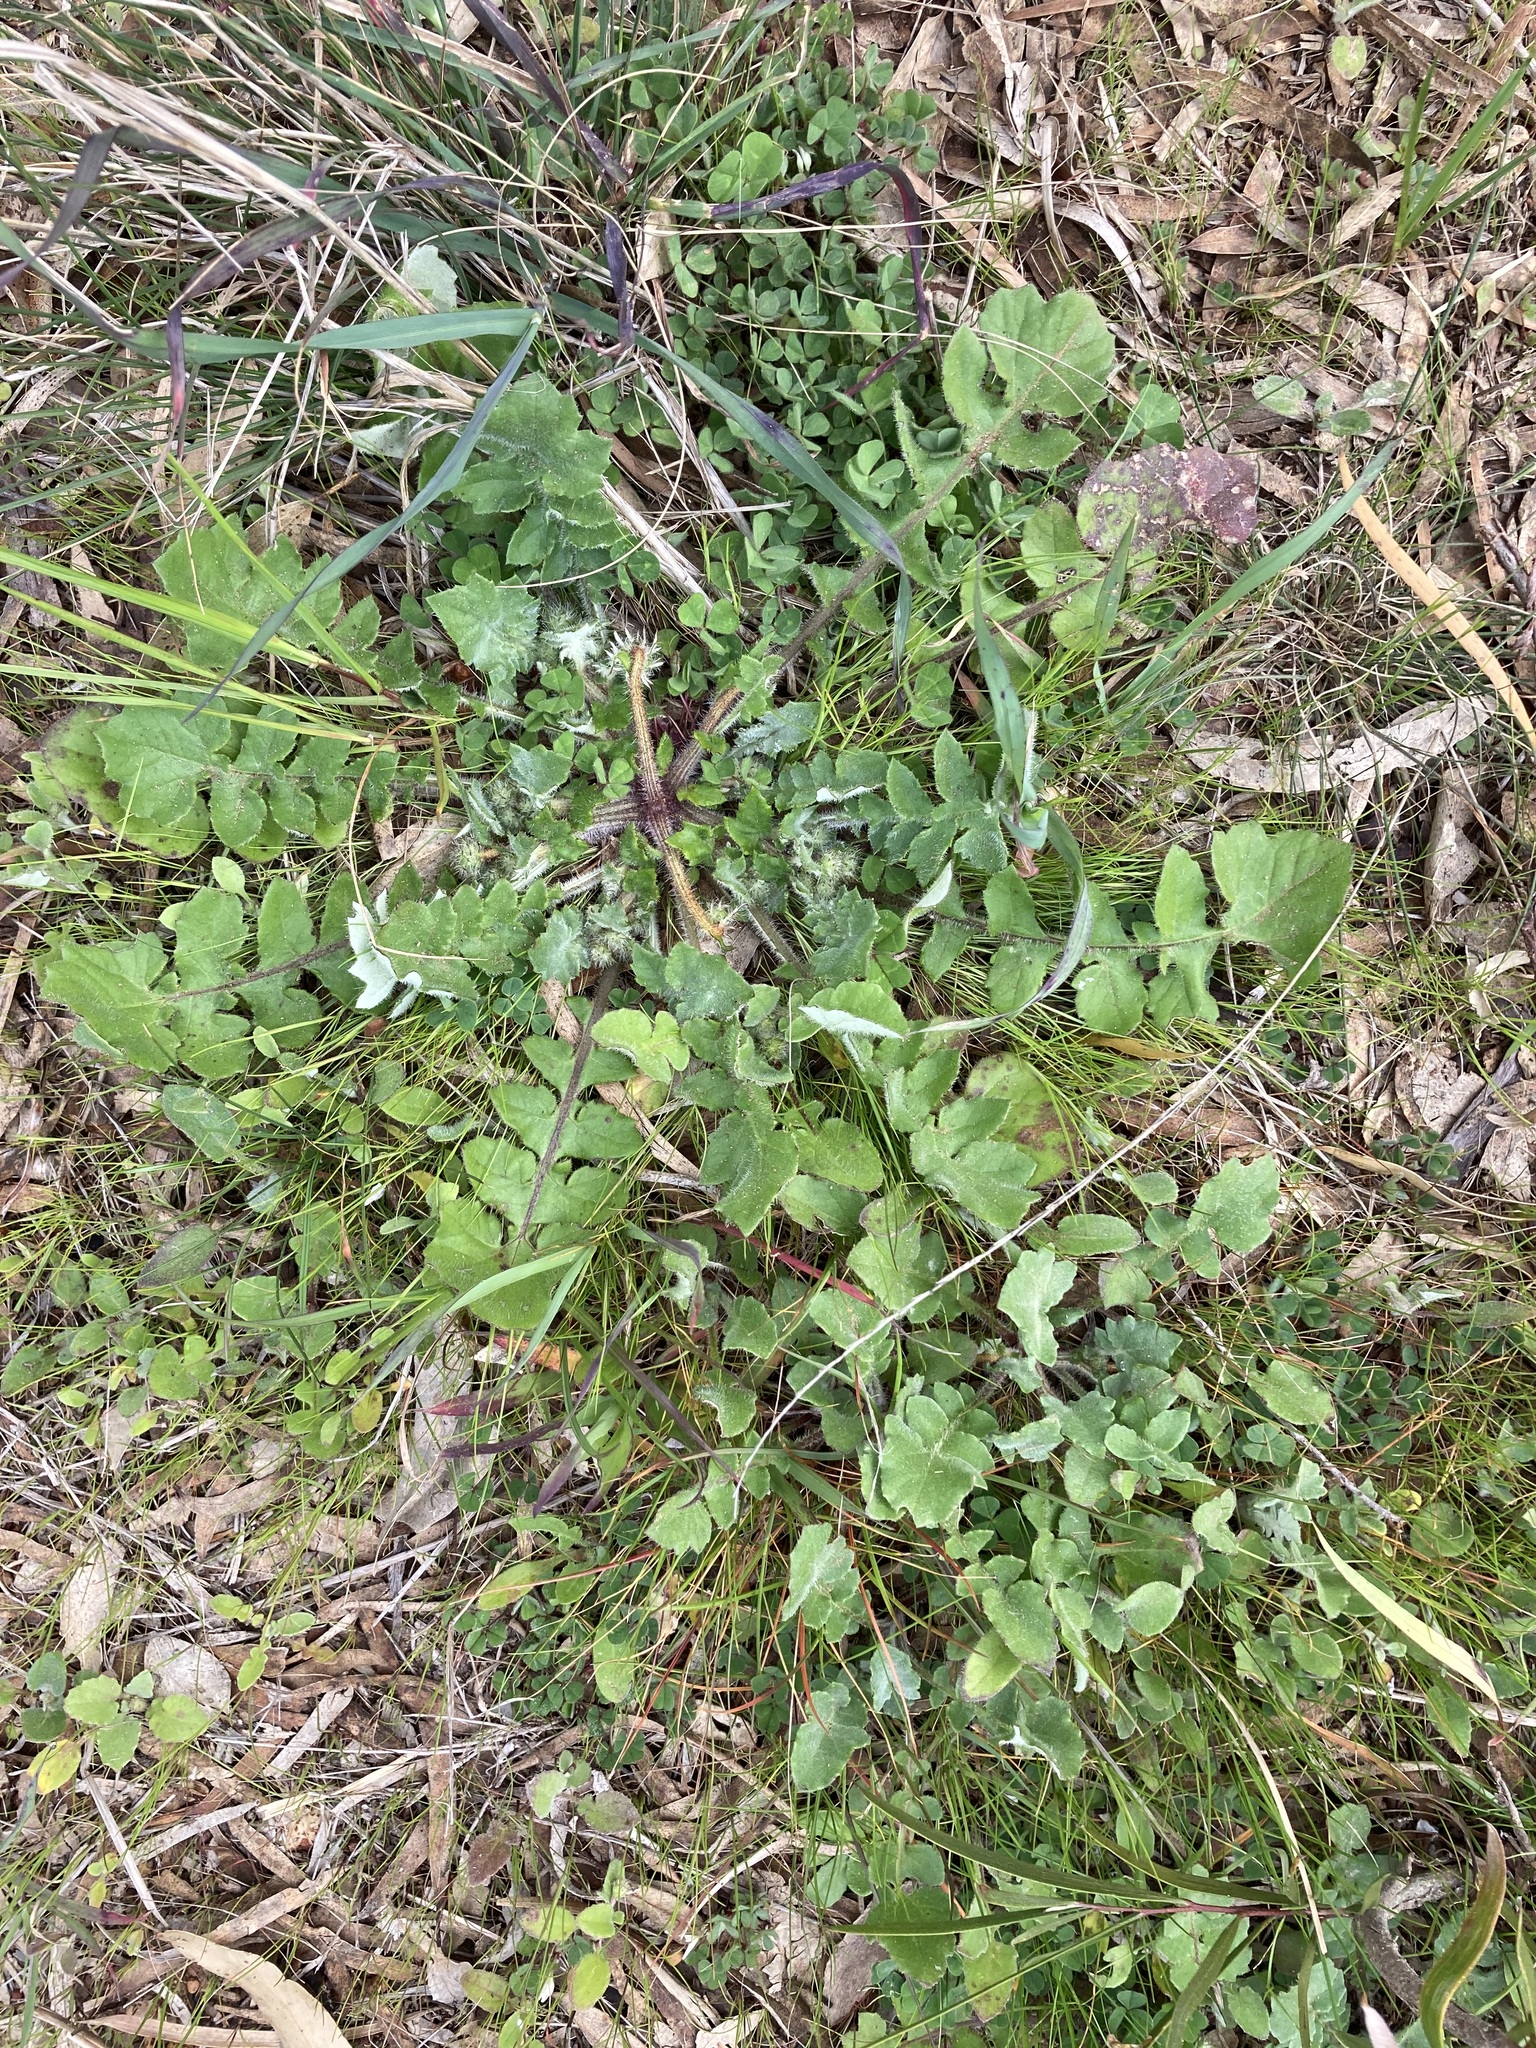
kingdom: Plantae
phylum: Tracheophyta
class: Magnoliopsida
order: Asterales
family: Asteraceae
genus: Arctotheca
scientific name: Arctotheca calendula
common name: Capeweed
